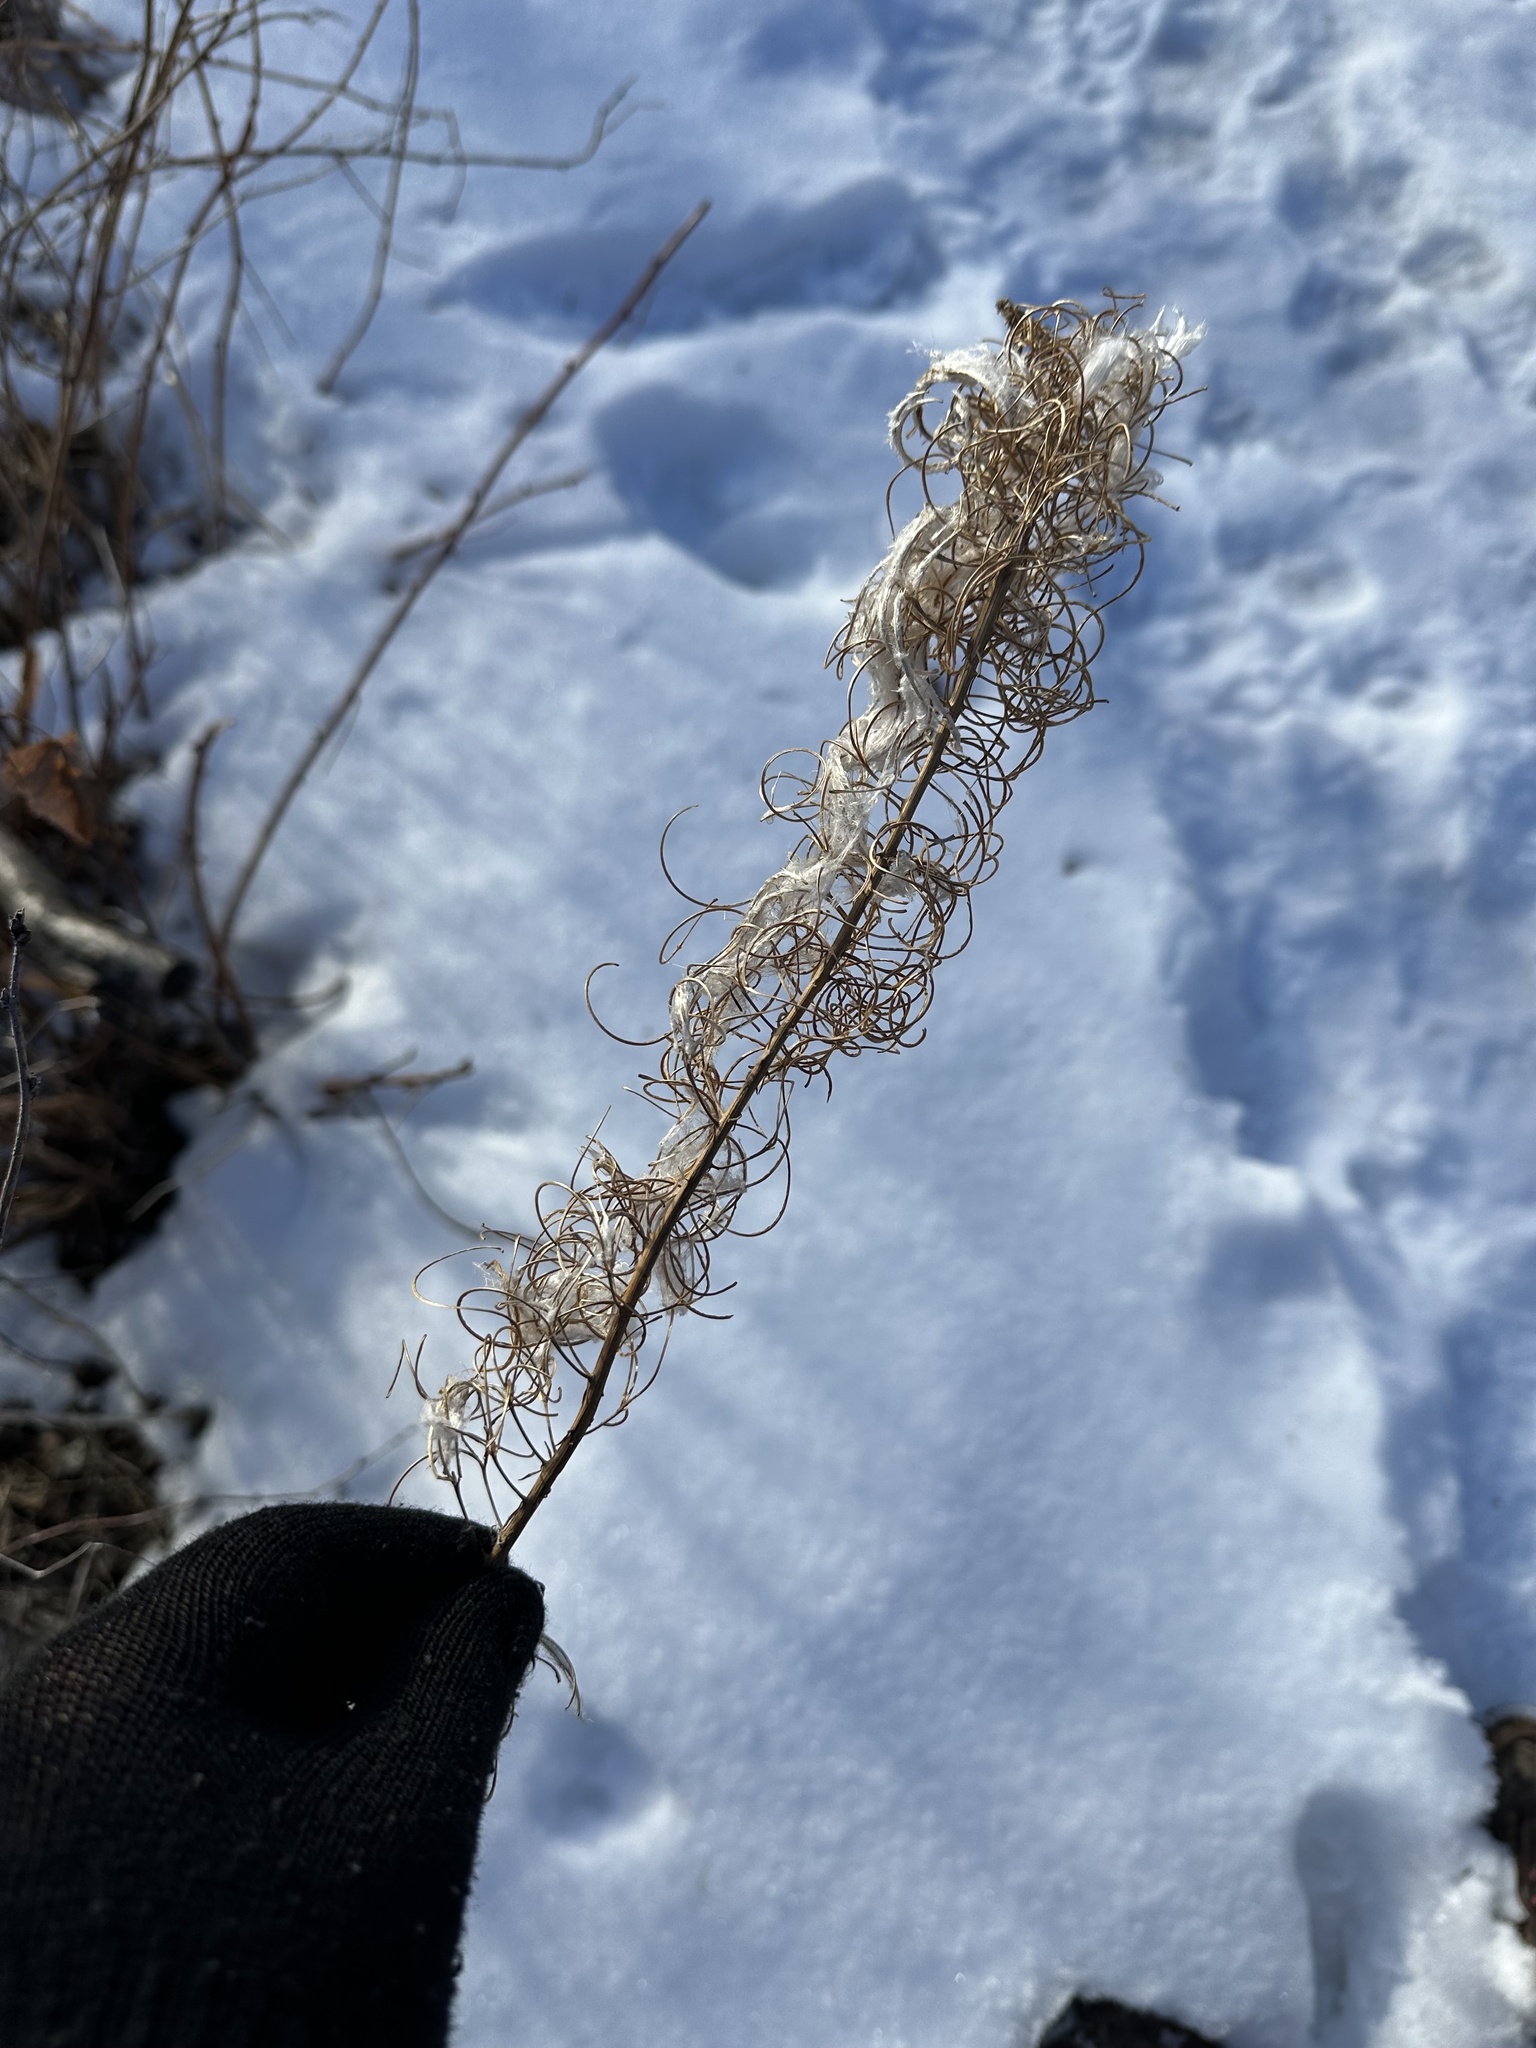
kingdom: Plantae
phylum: Tracheophyta
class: Magnoliopsida
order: Myrtales
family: Onagraceae
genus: Chamaenerion
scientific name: Chamaenerion angustifolium
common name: Fireweed
